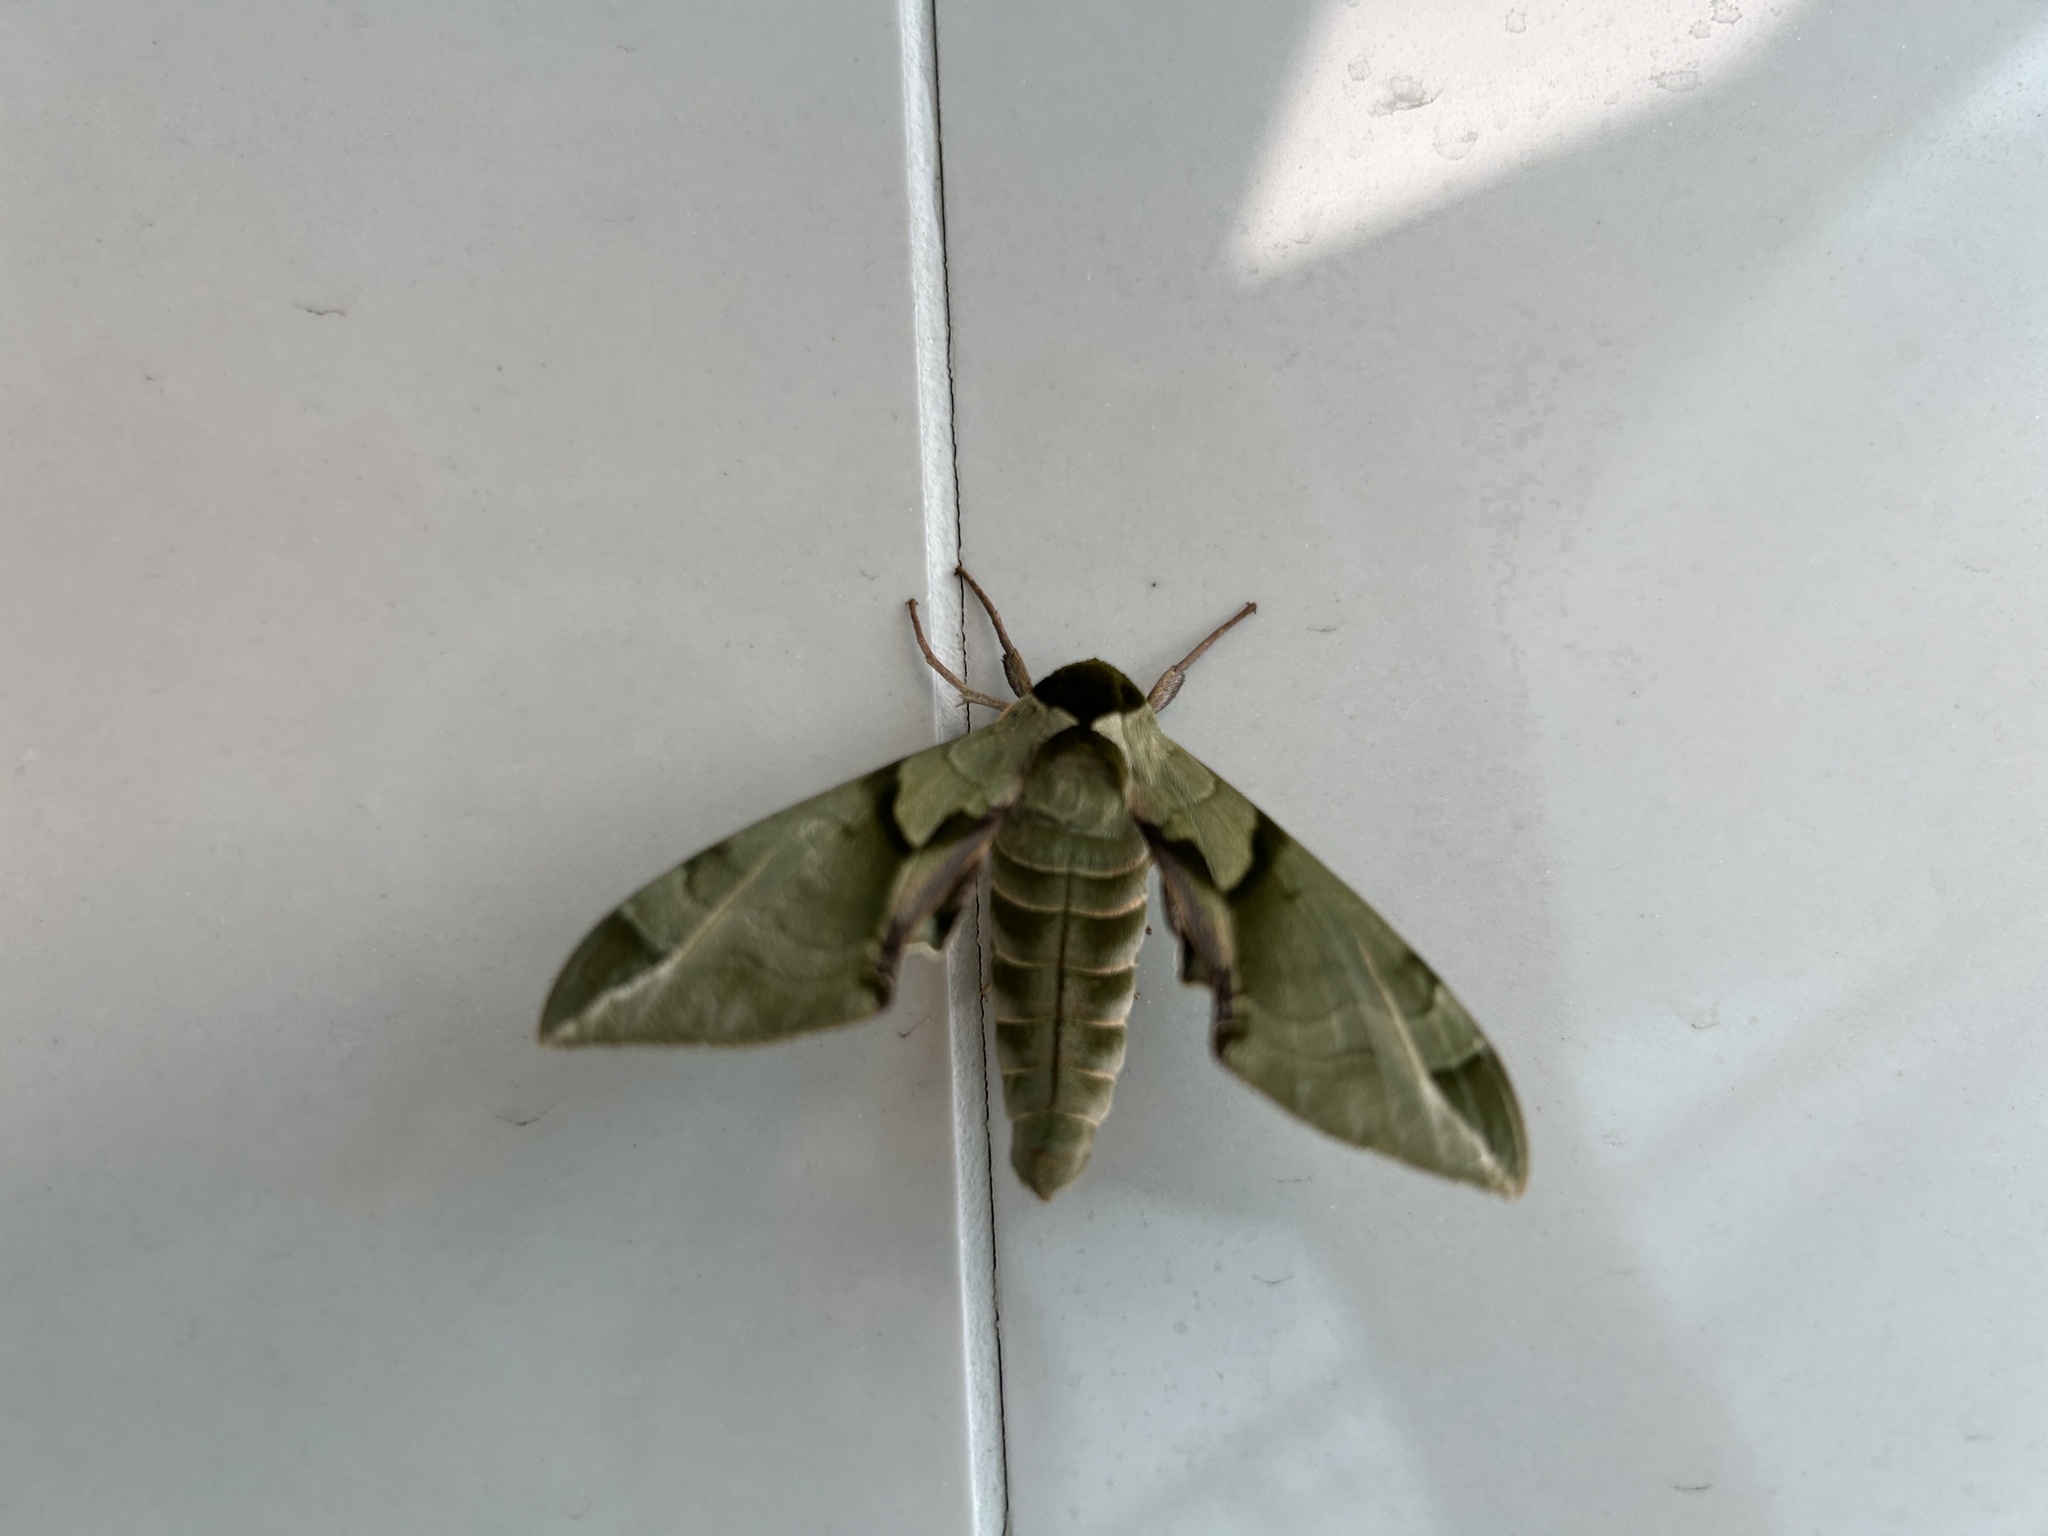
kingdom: Animalia
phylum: Arthropoda
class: Insecta
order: Lepidoptera
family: Sphingidae
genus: Callambulyx
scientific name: Callambulyx tatarinovii
